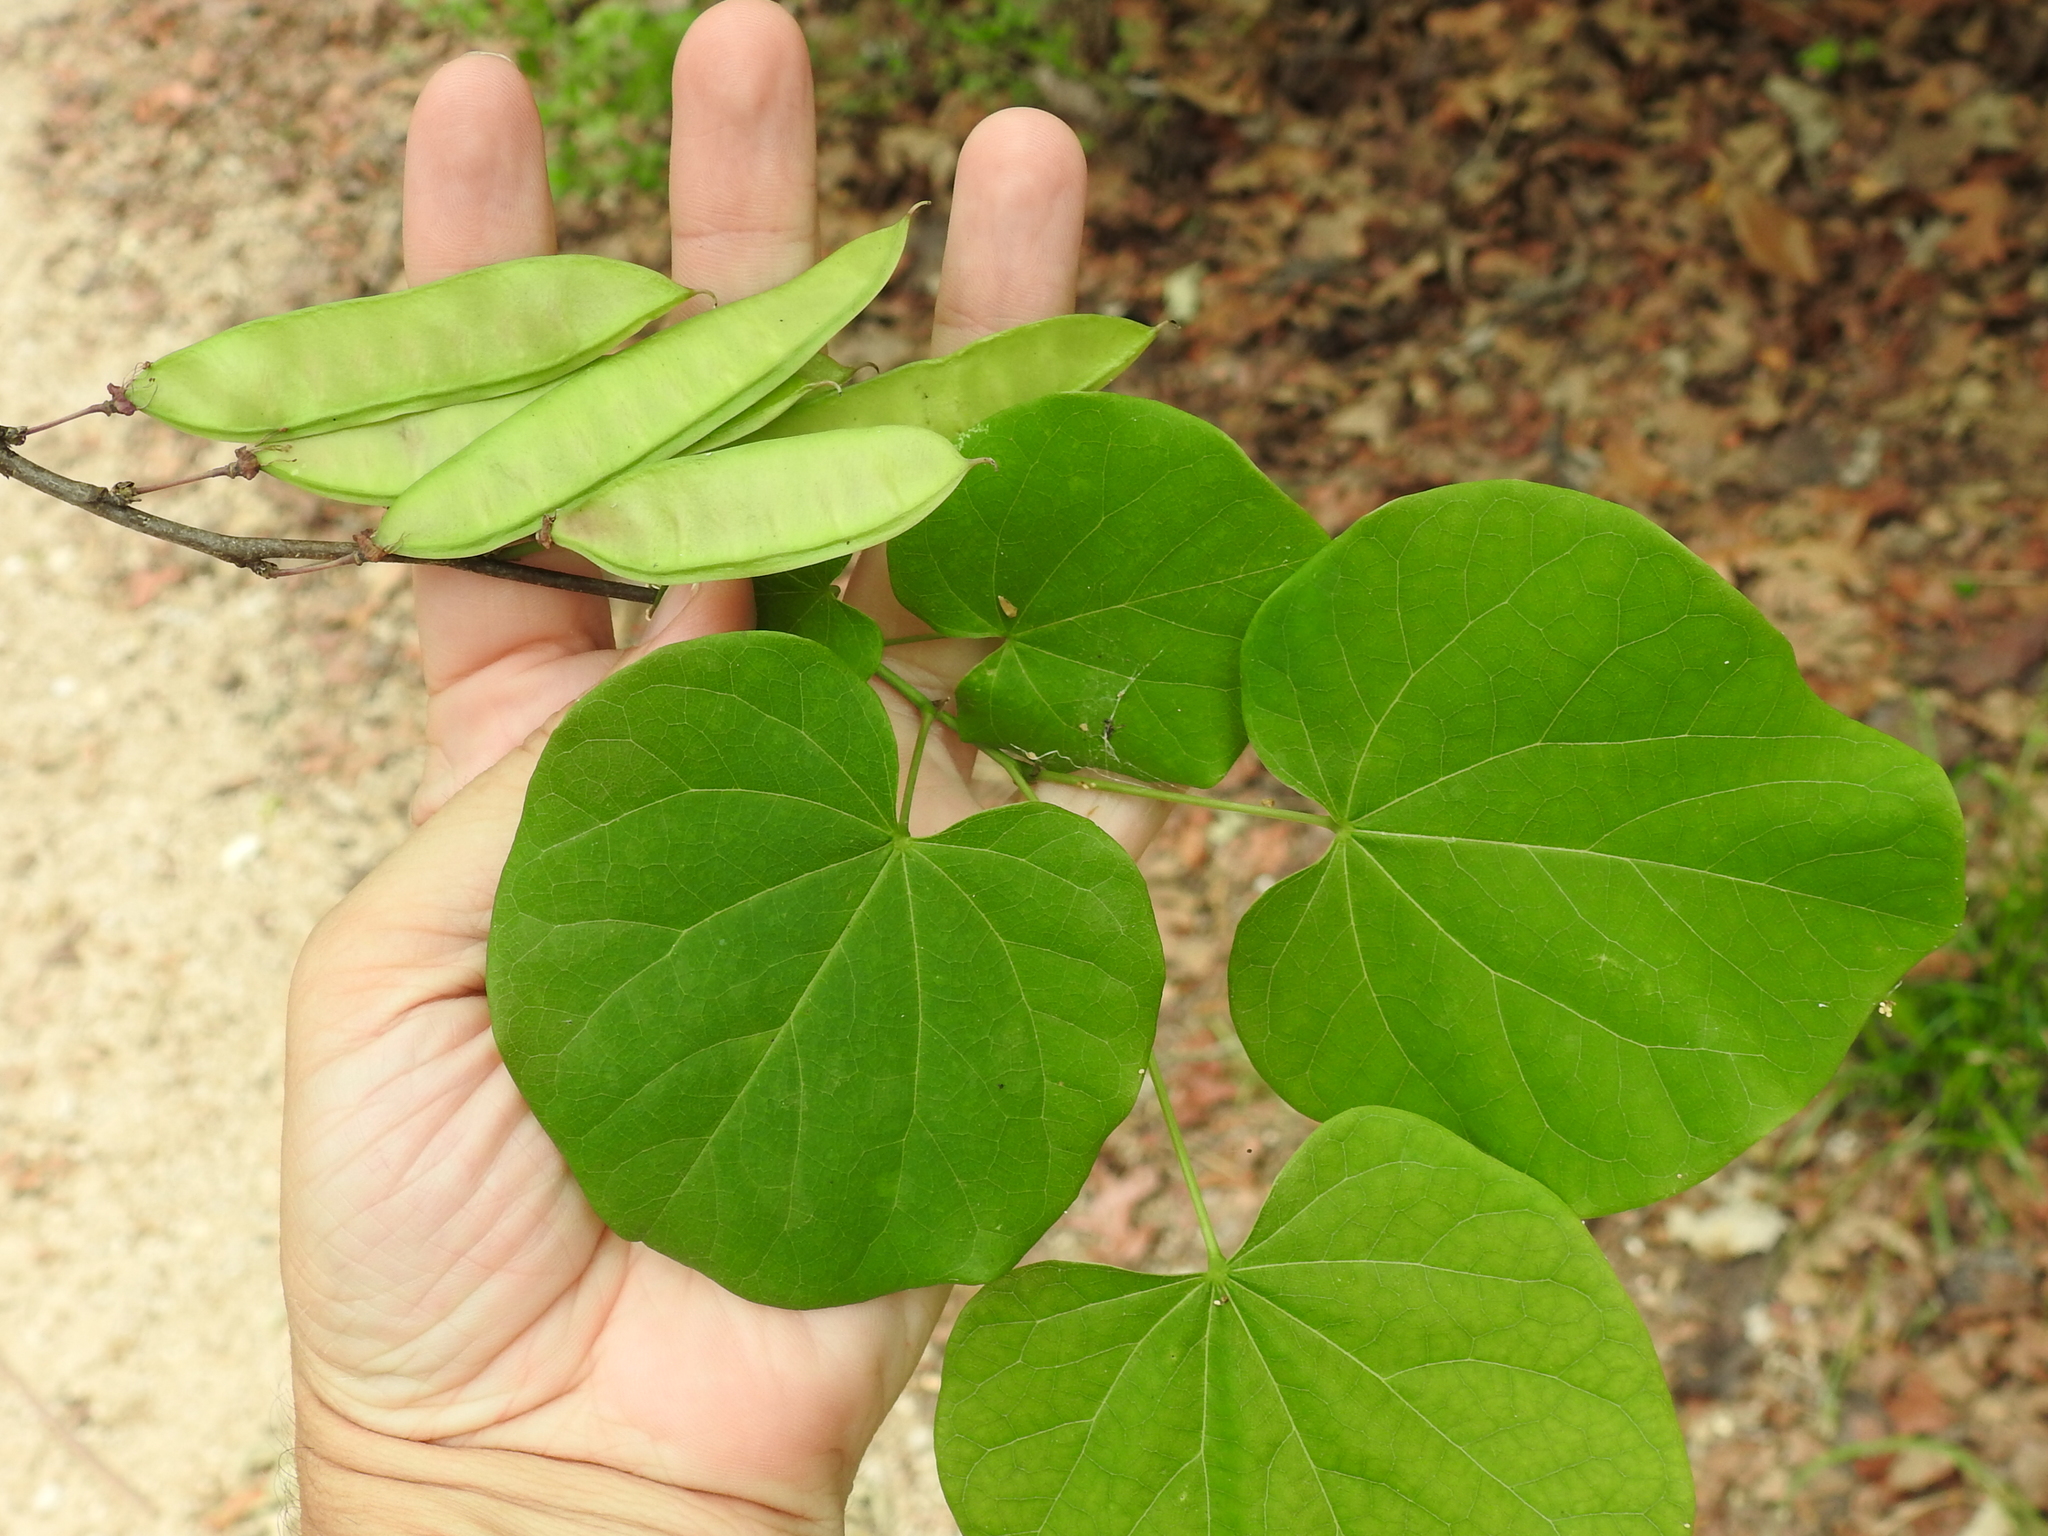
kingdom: Plantae
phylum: Tracheophyta
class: Magnoliopsida
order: Fabales
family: Fabaceae
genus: Cercis
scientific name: Cercis canadensis
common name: Eastern redbud
